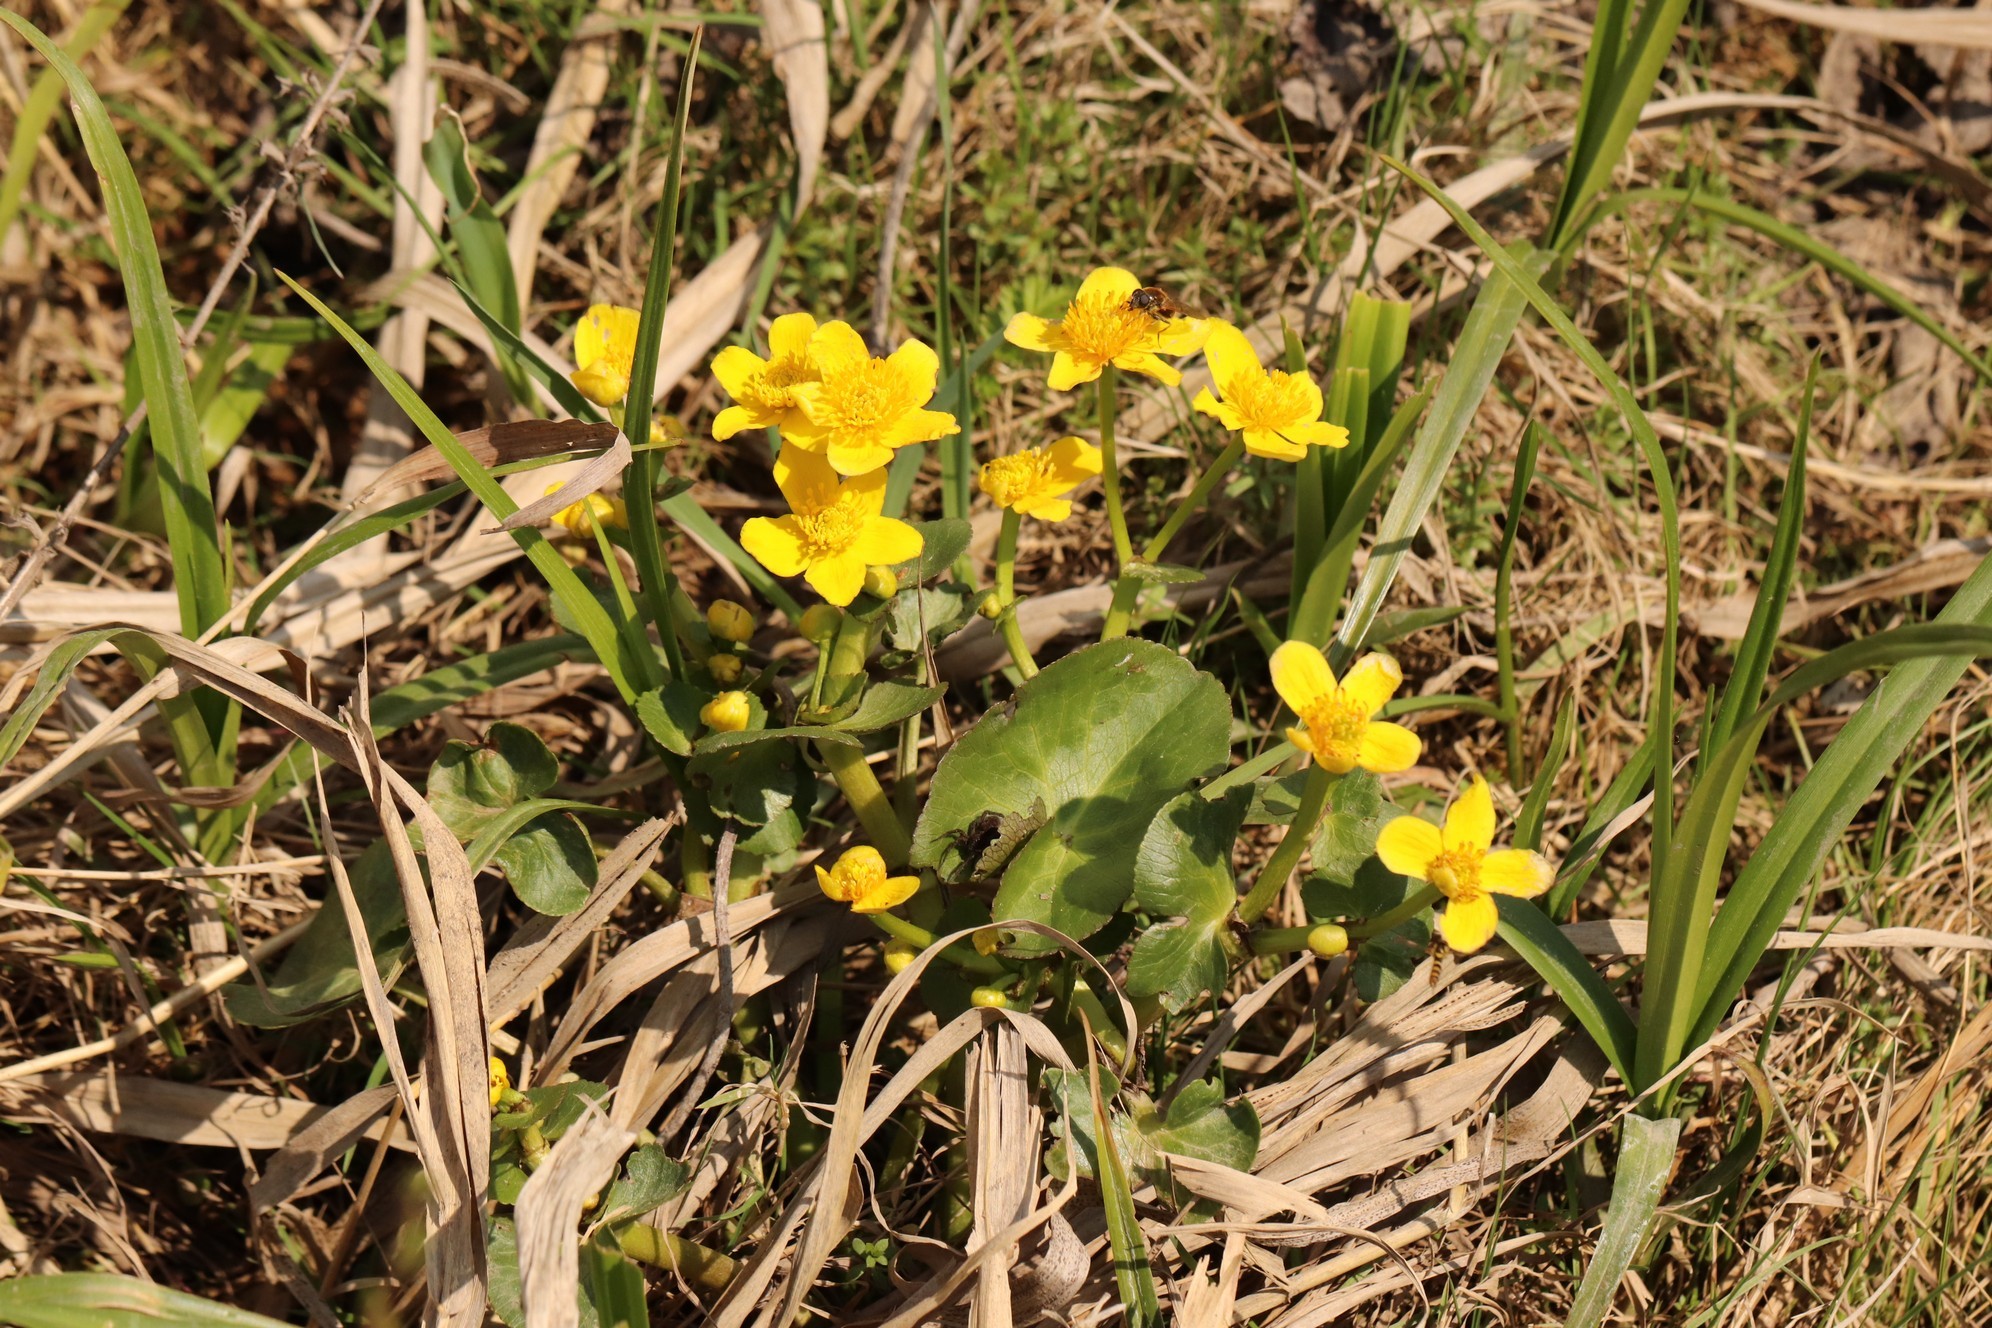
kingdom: Plantae
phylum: Tracheophyta
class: Magnoliopsida
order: Ranunculales
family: Ranunculaceae
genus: Caltha
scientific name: Caltha palustris
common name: Marsh marigold
